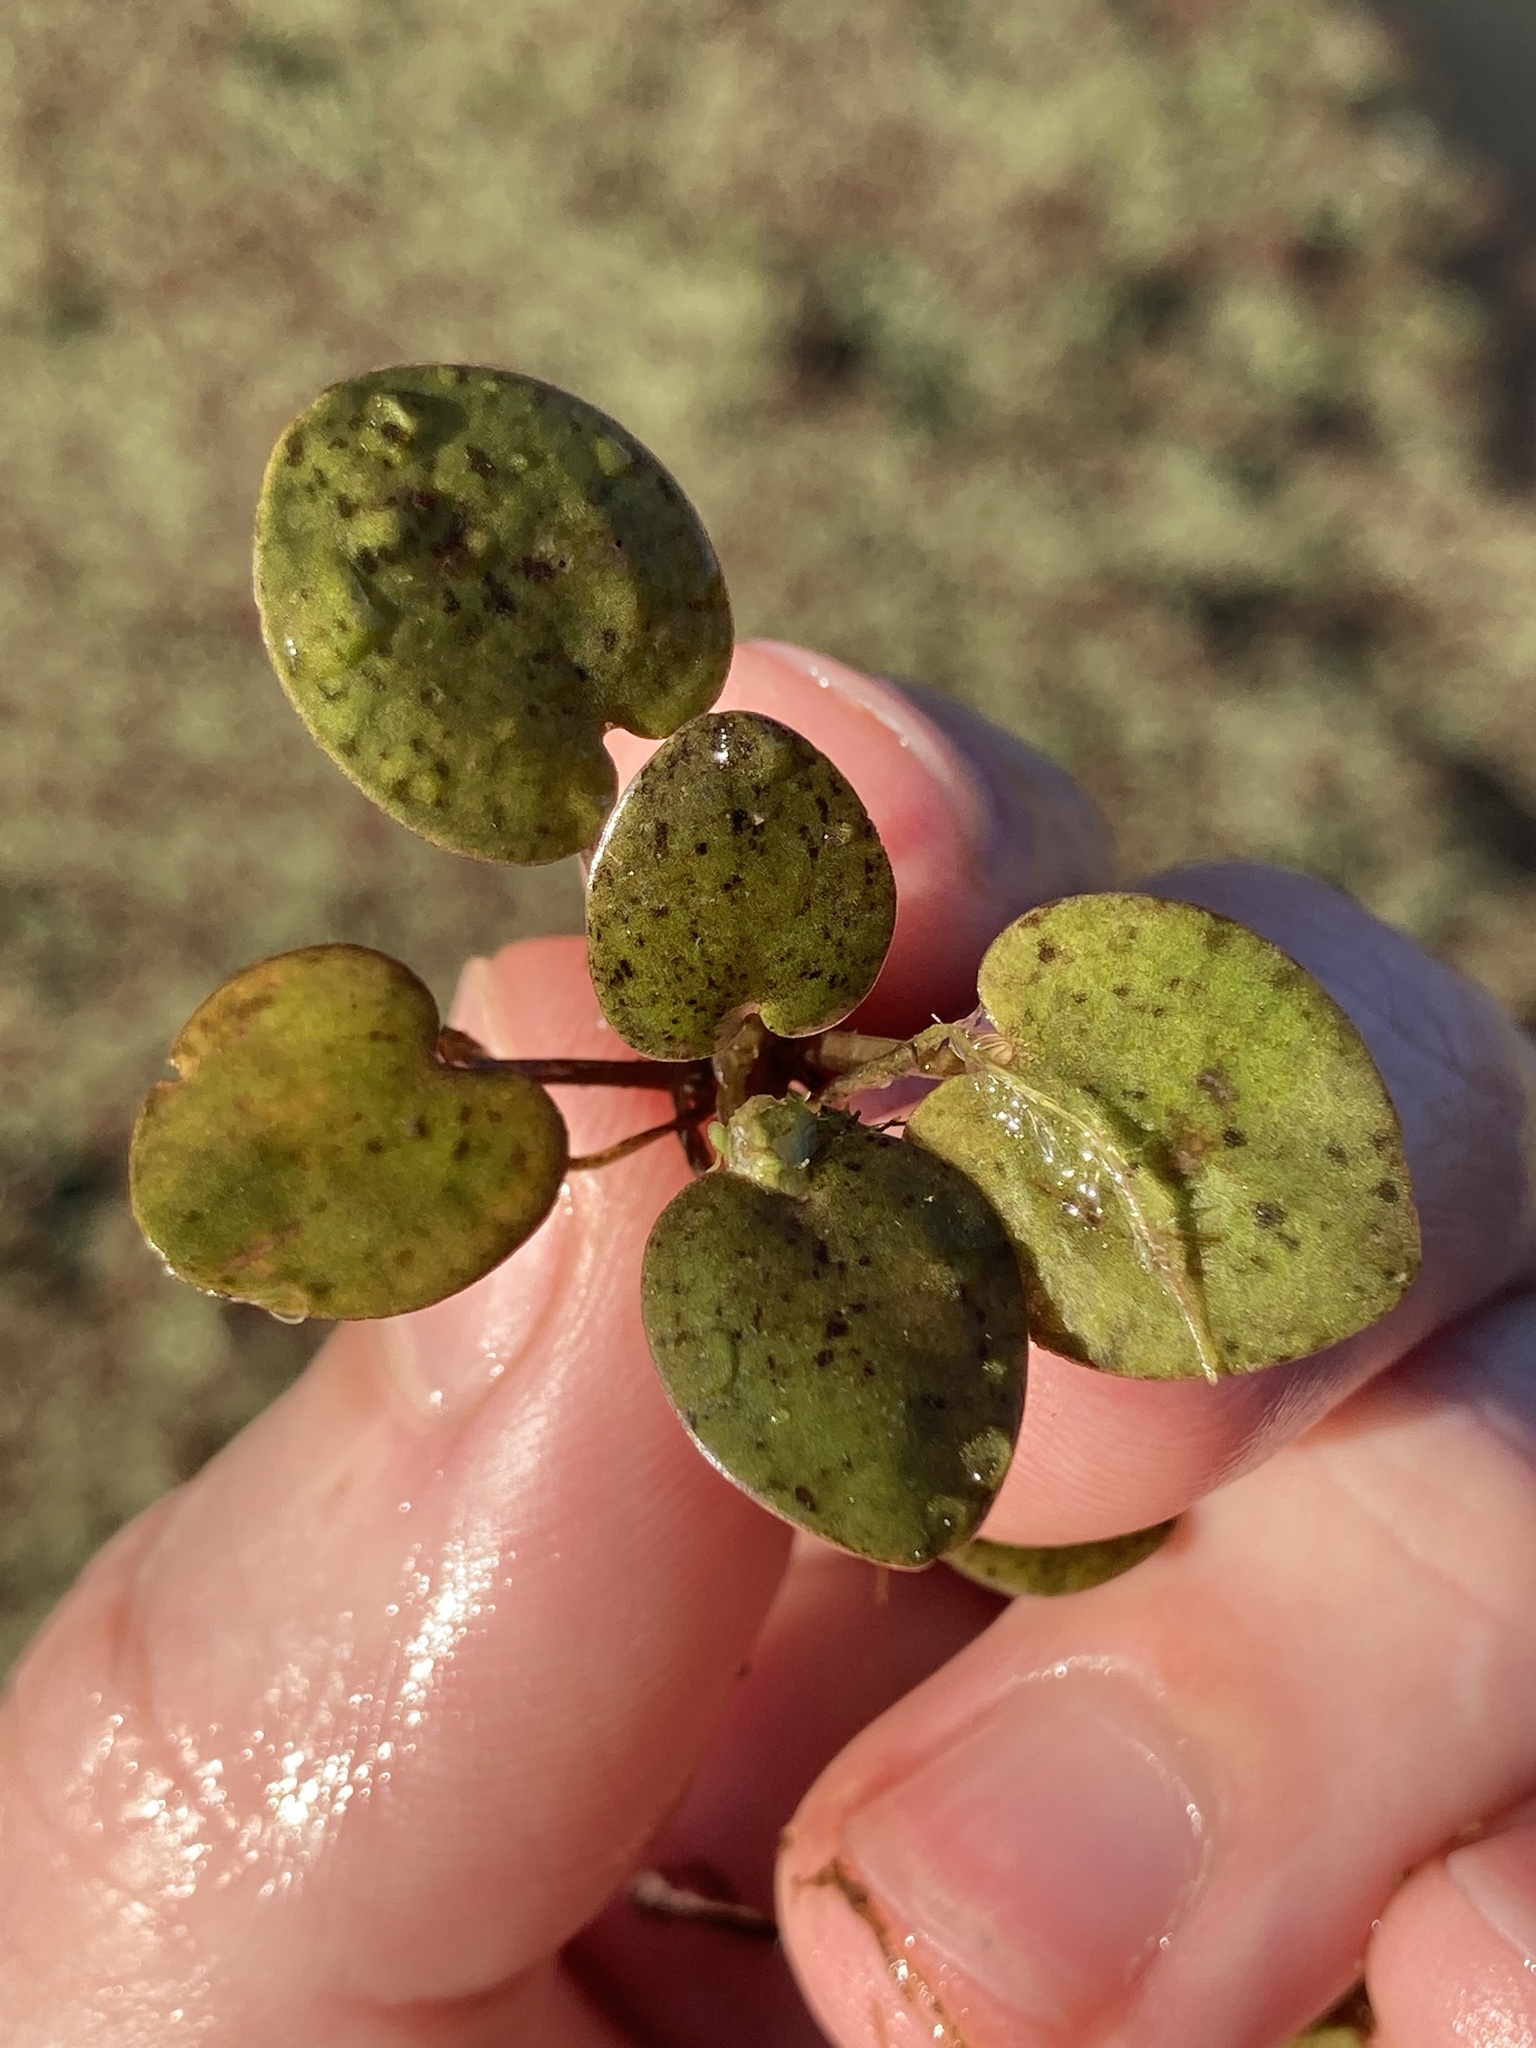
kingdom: Plantae
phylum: Tracheophyta
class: Liliopsida
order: Alismatales
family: Hydrocharitaceae
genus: Hydrocharis
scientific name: Hydrocharis spongia
